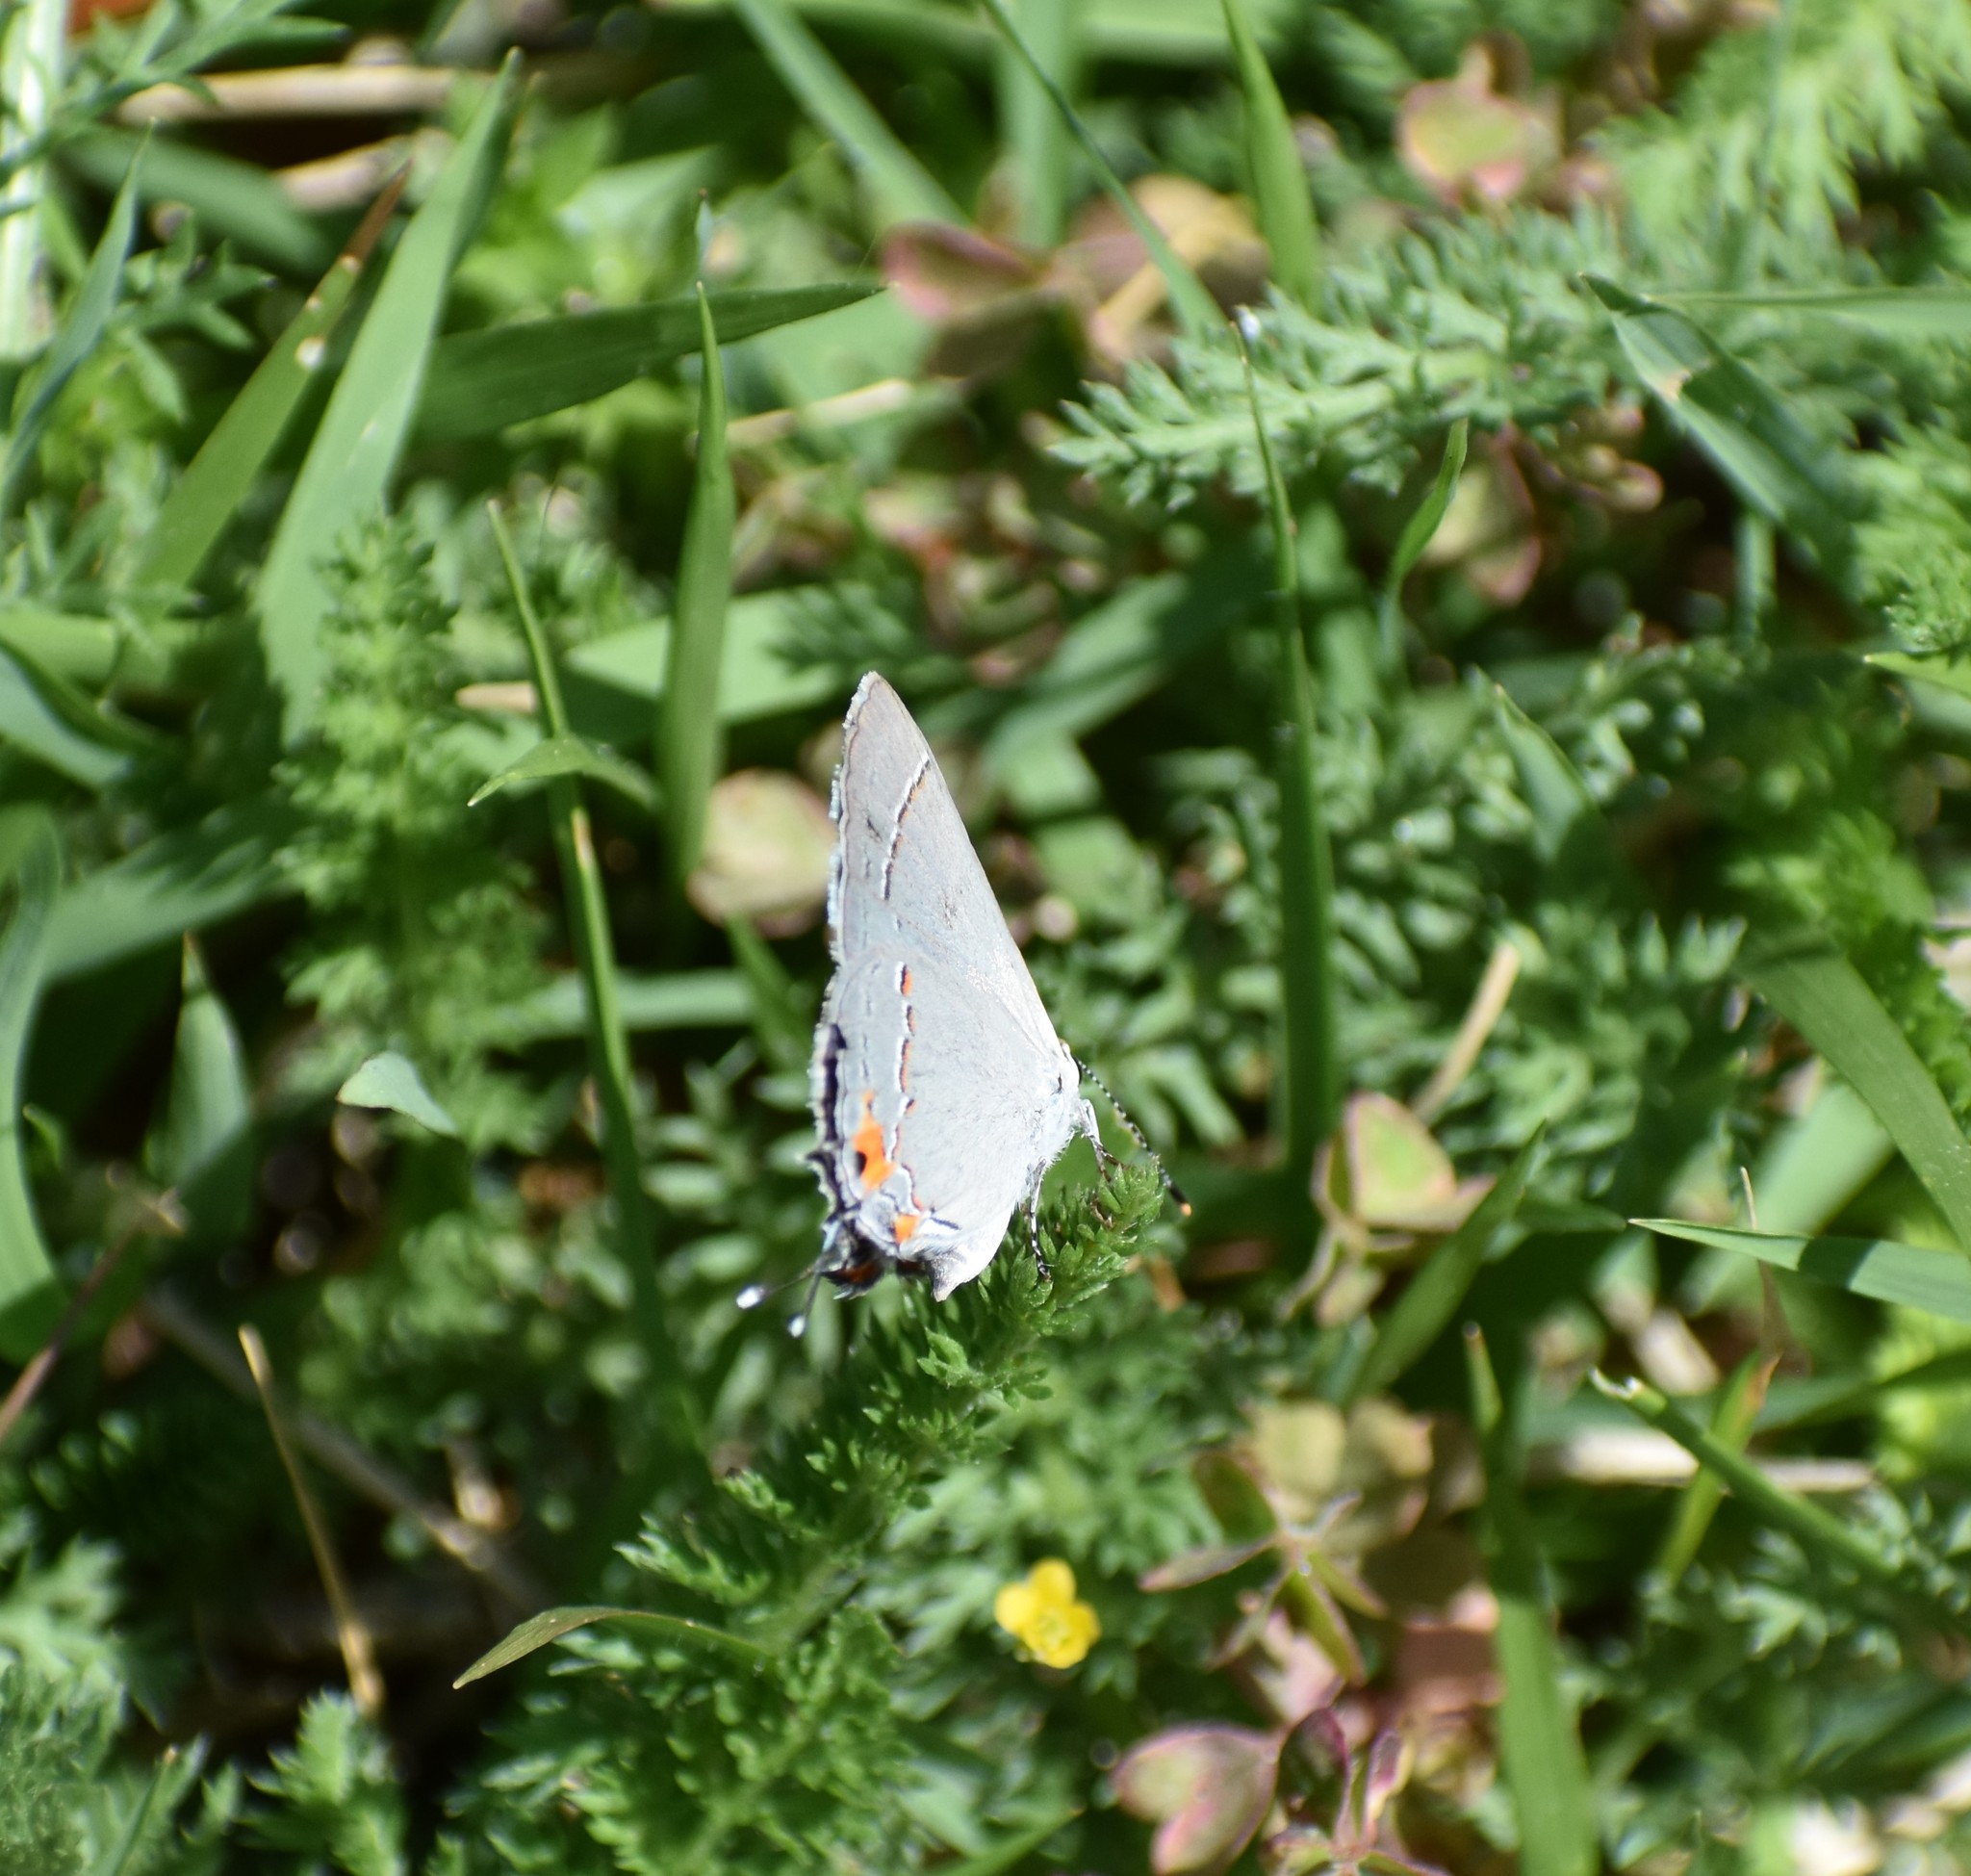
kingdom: Animalia
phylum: Arthropoda
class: Insecta
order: Lepidoptera
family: Lycaenidae
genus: Strymon
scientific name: Strymon melinus
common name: Gray hairstreak
